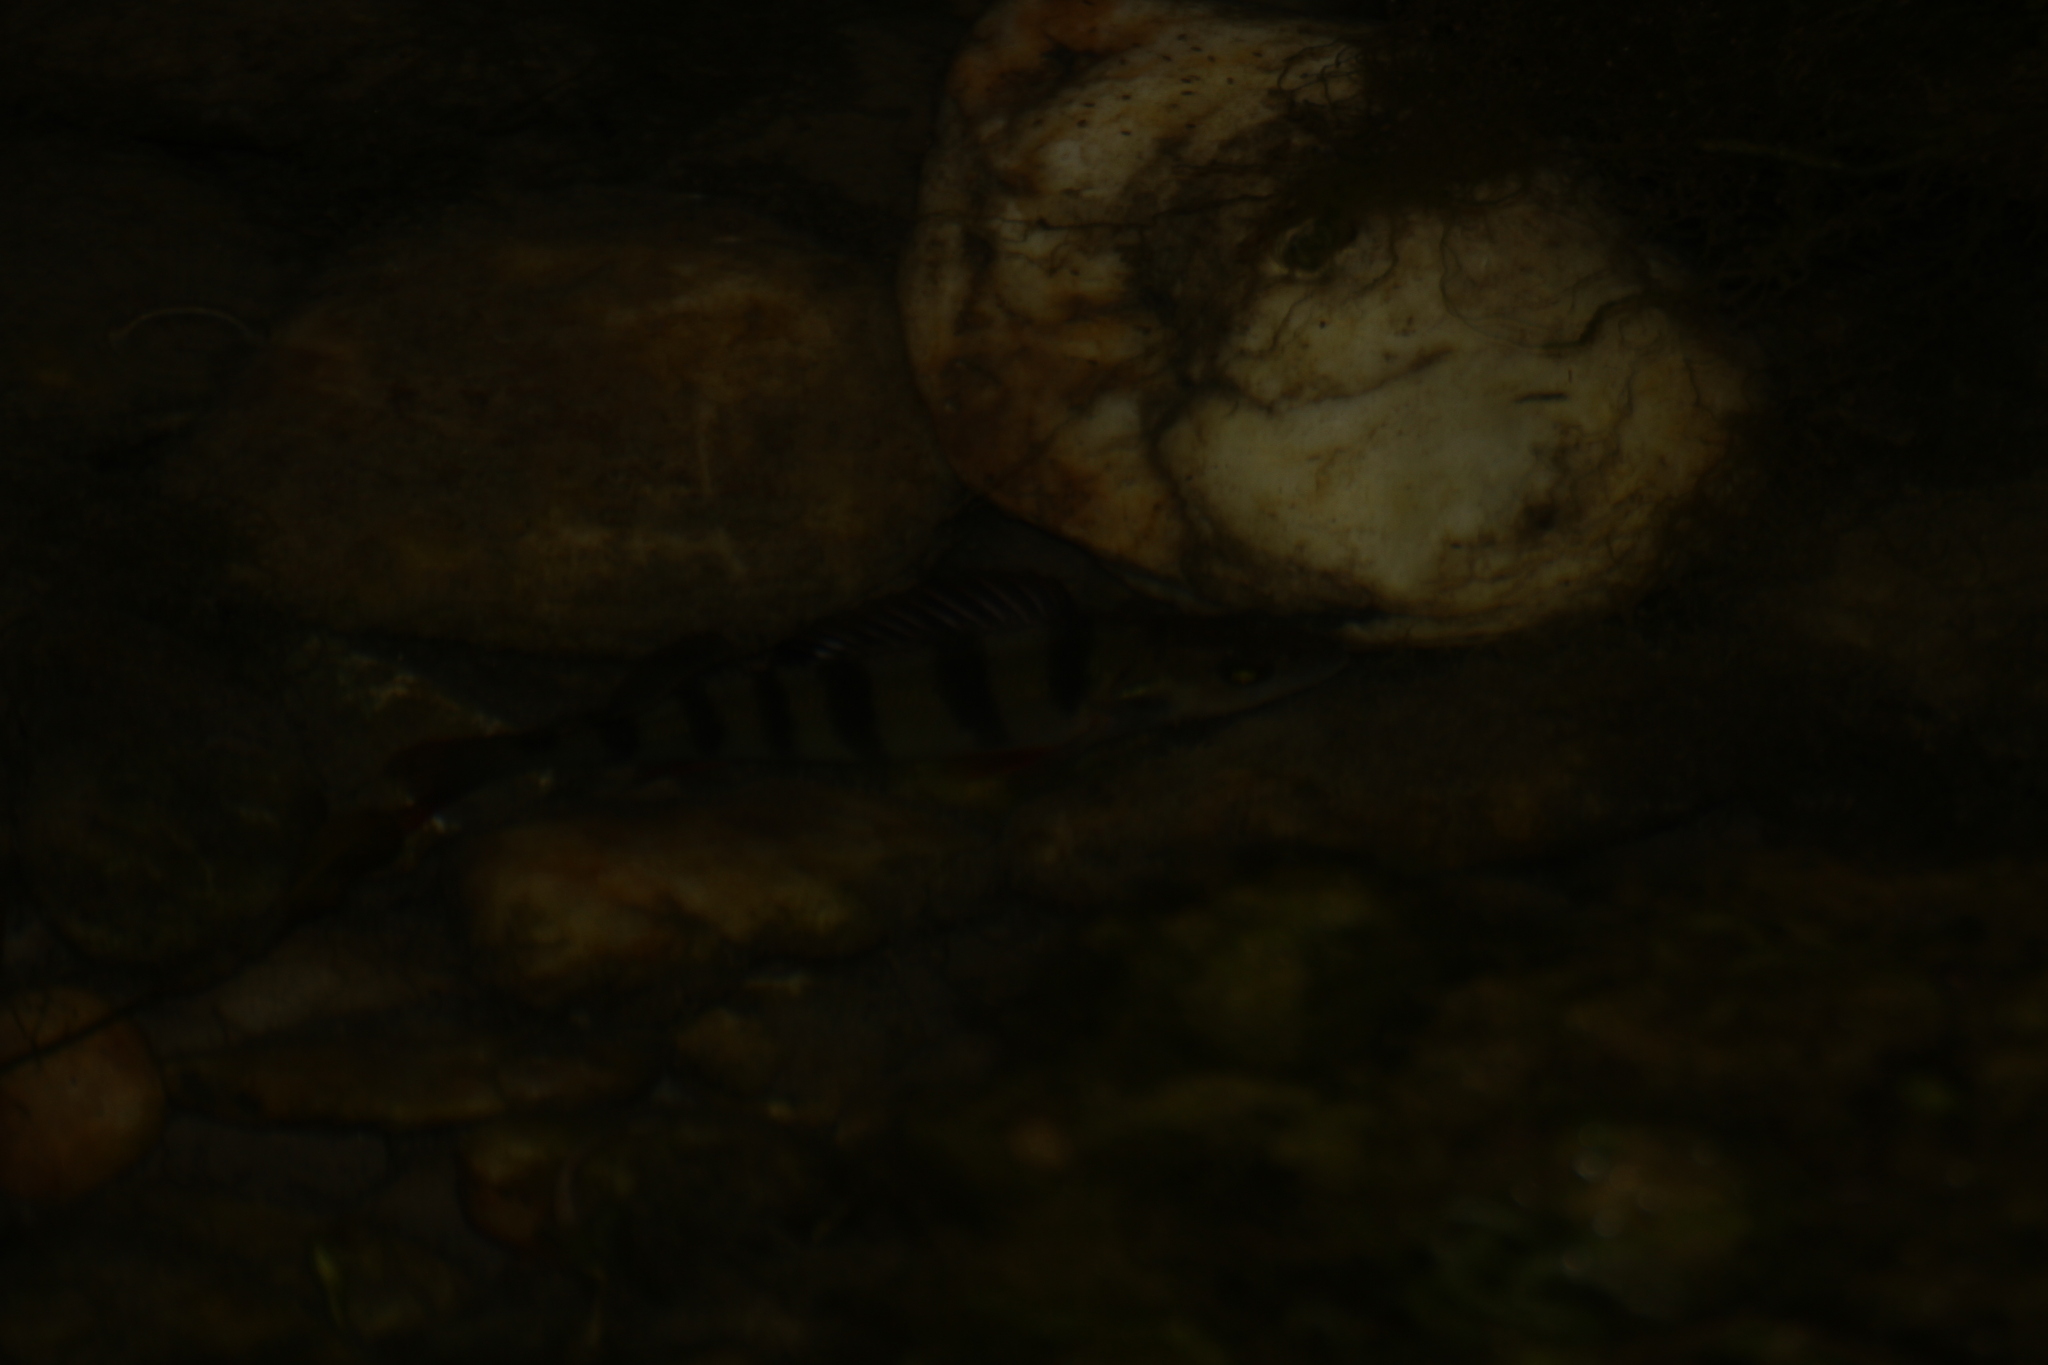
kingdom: Animalia
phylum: Chordata
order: Perciformes
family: Percidae
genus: Perca
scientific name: Perca fluviatilis
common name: Perch
